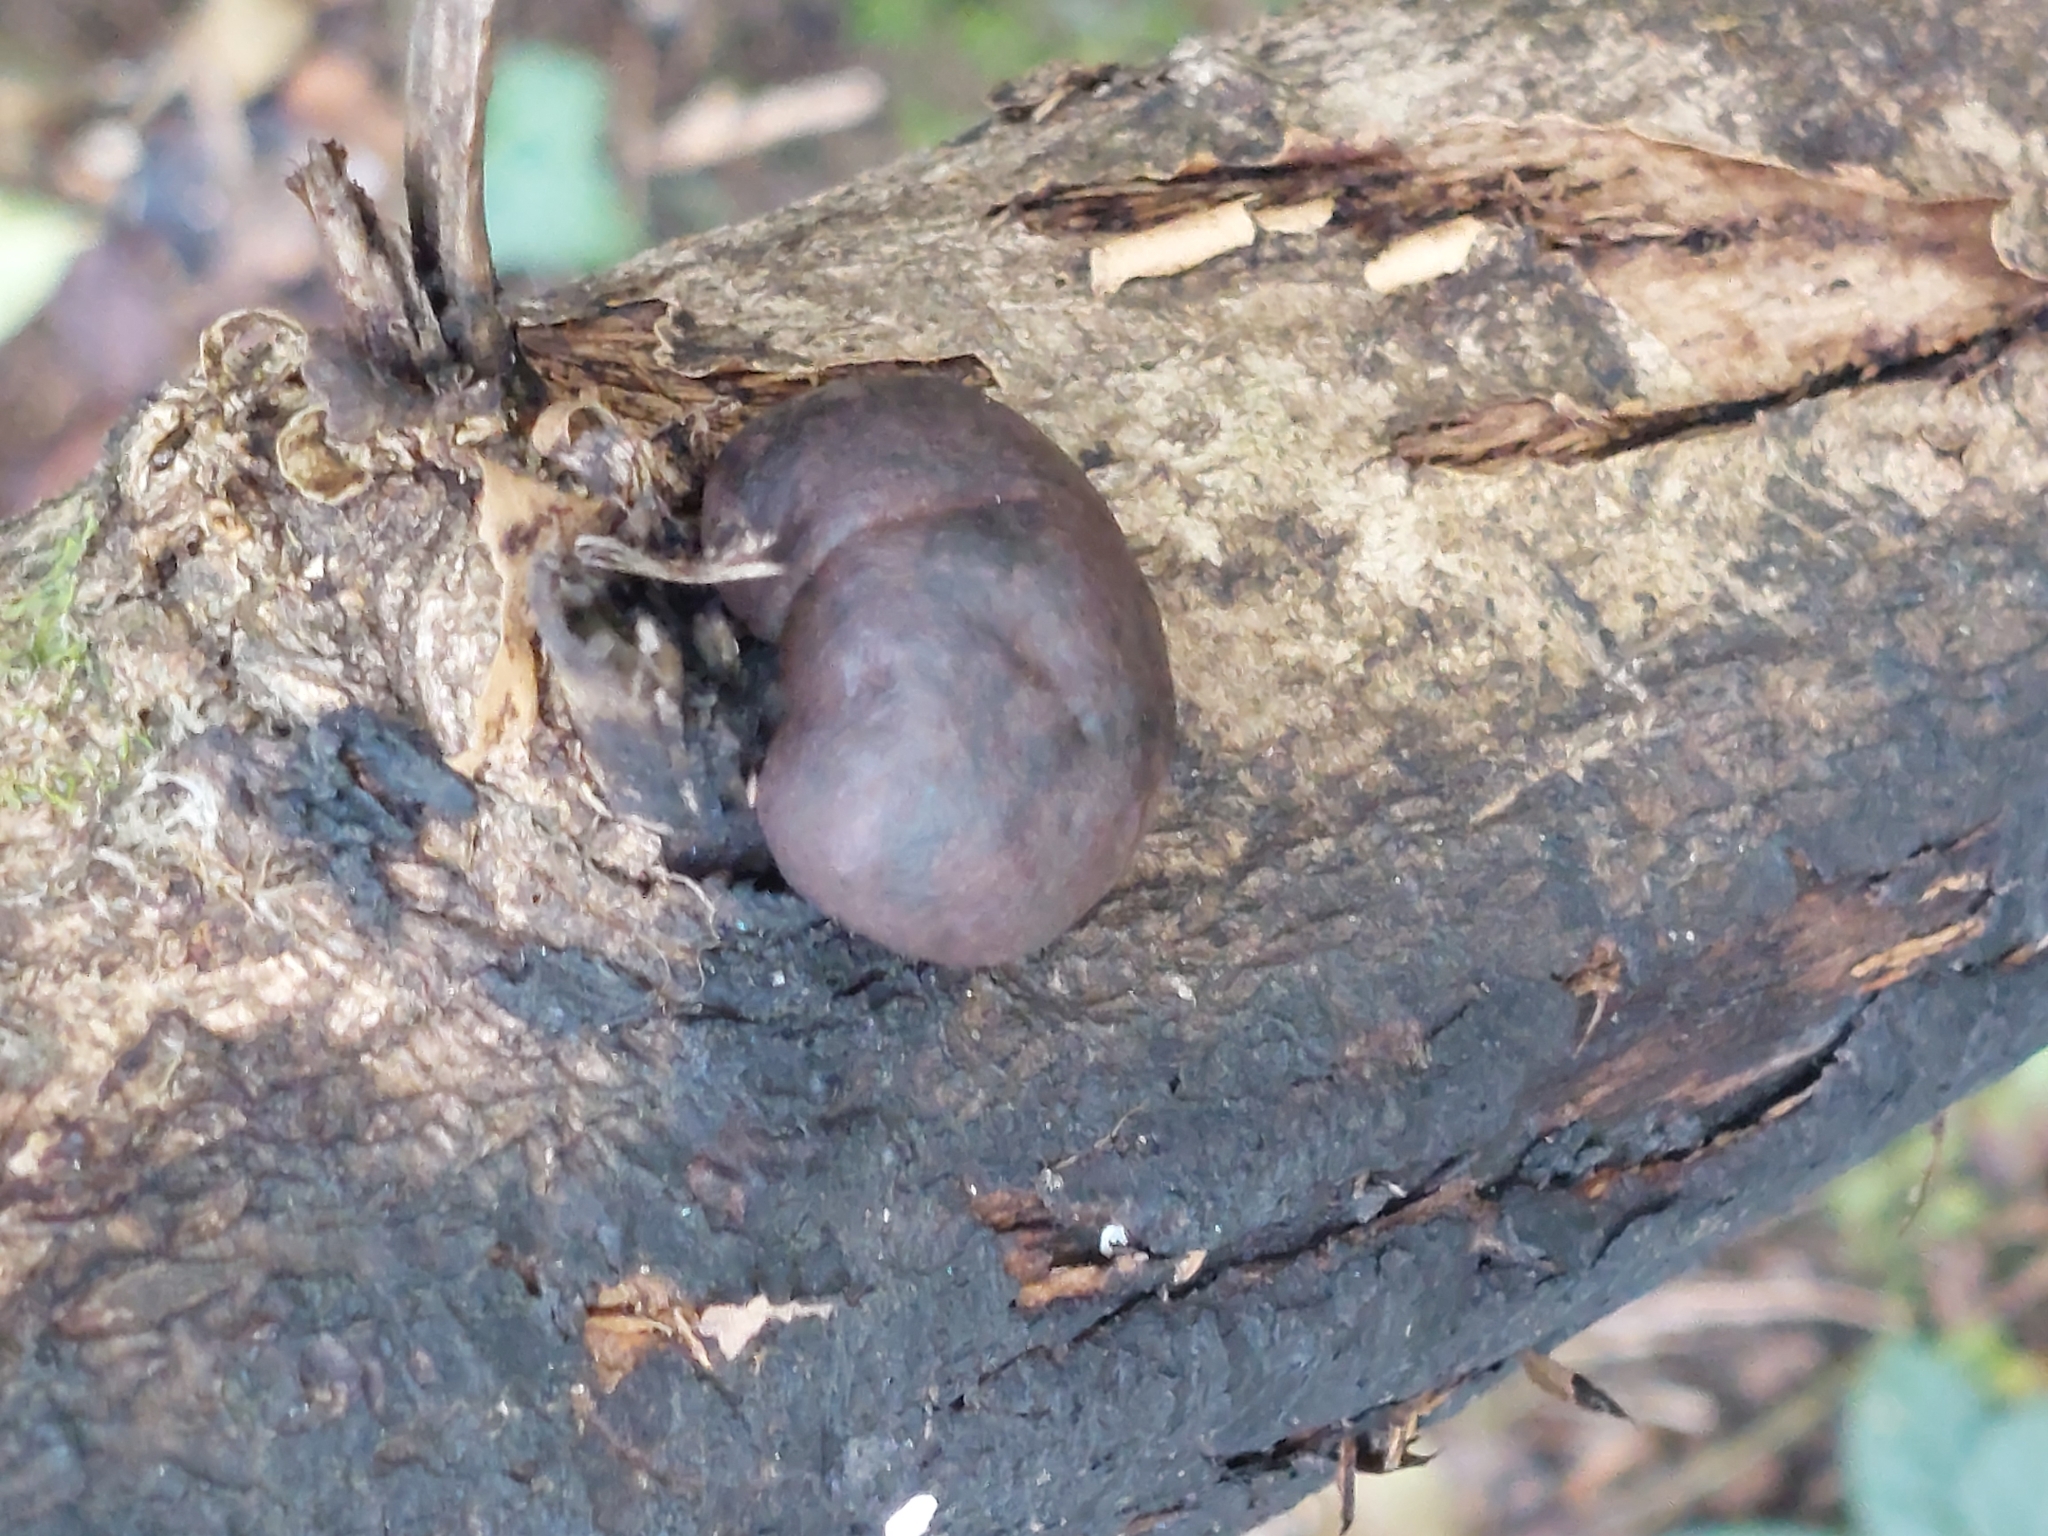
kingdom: Fungi
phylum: Ascomycota
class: Sordariomycetes
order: Xylariales
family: Hypoxylaceae
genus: Daldinia
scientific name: Daldinia concentrica
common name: Cramp balls
